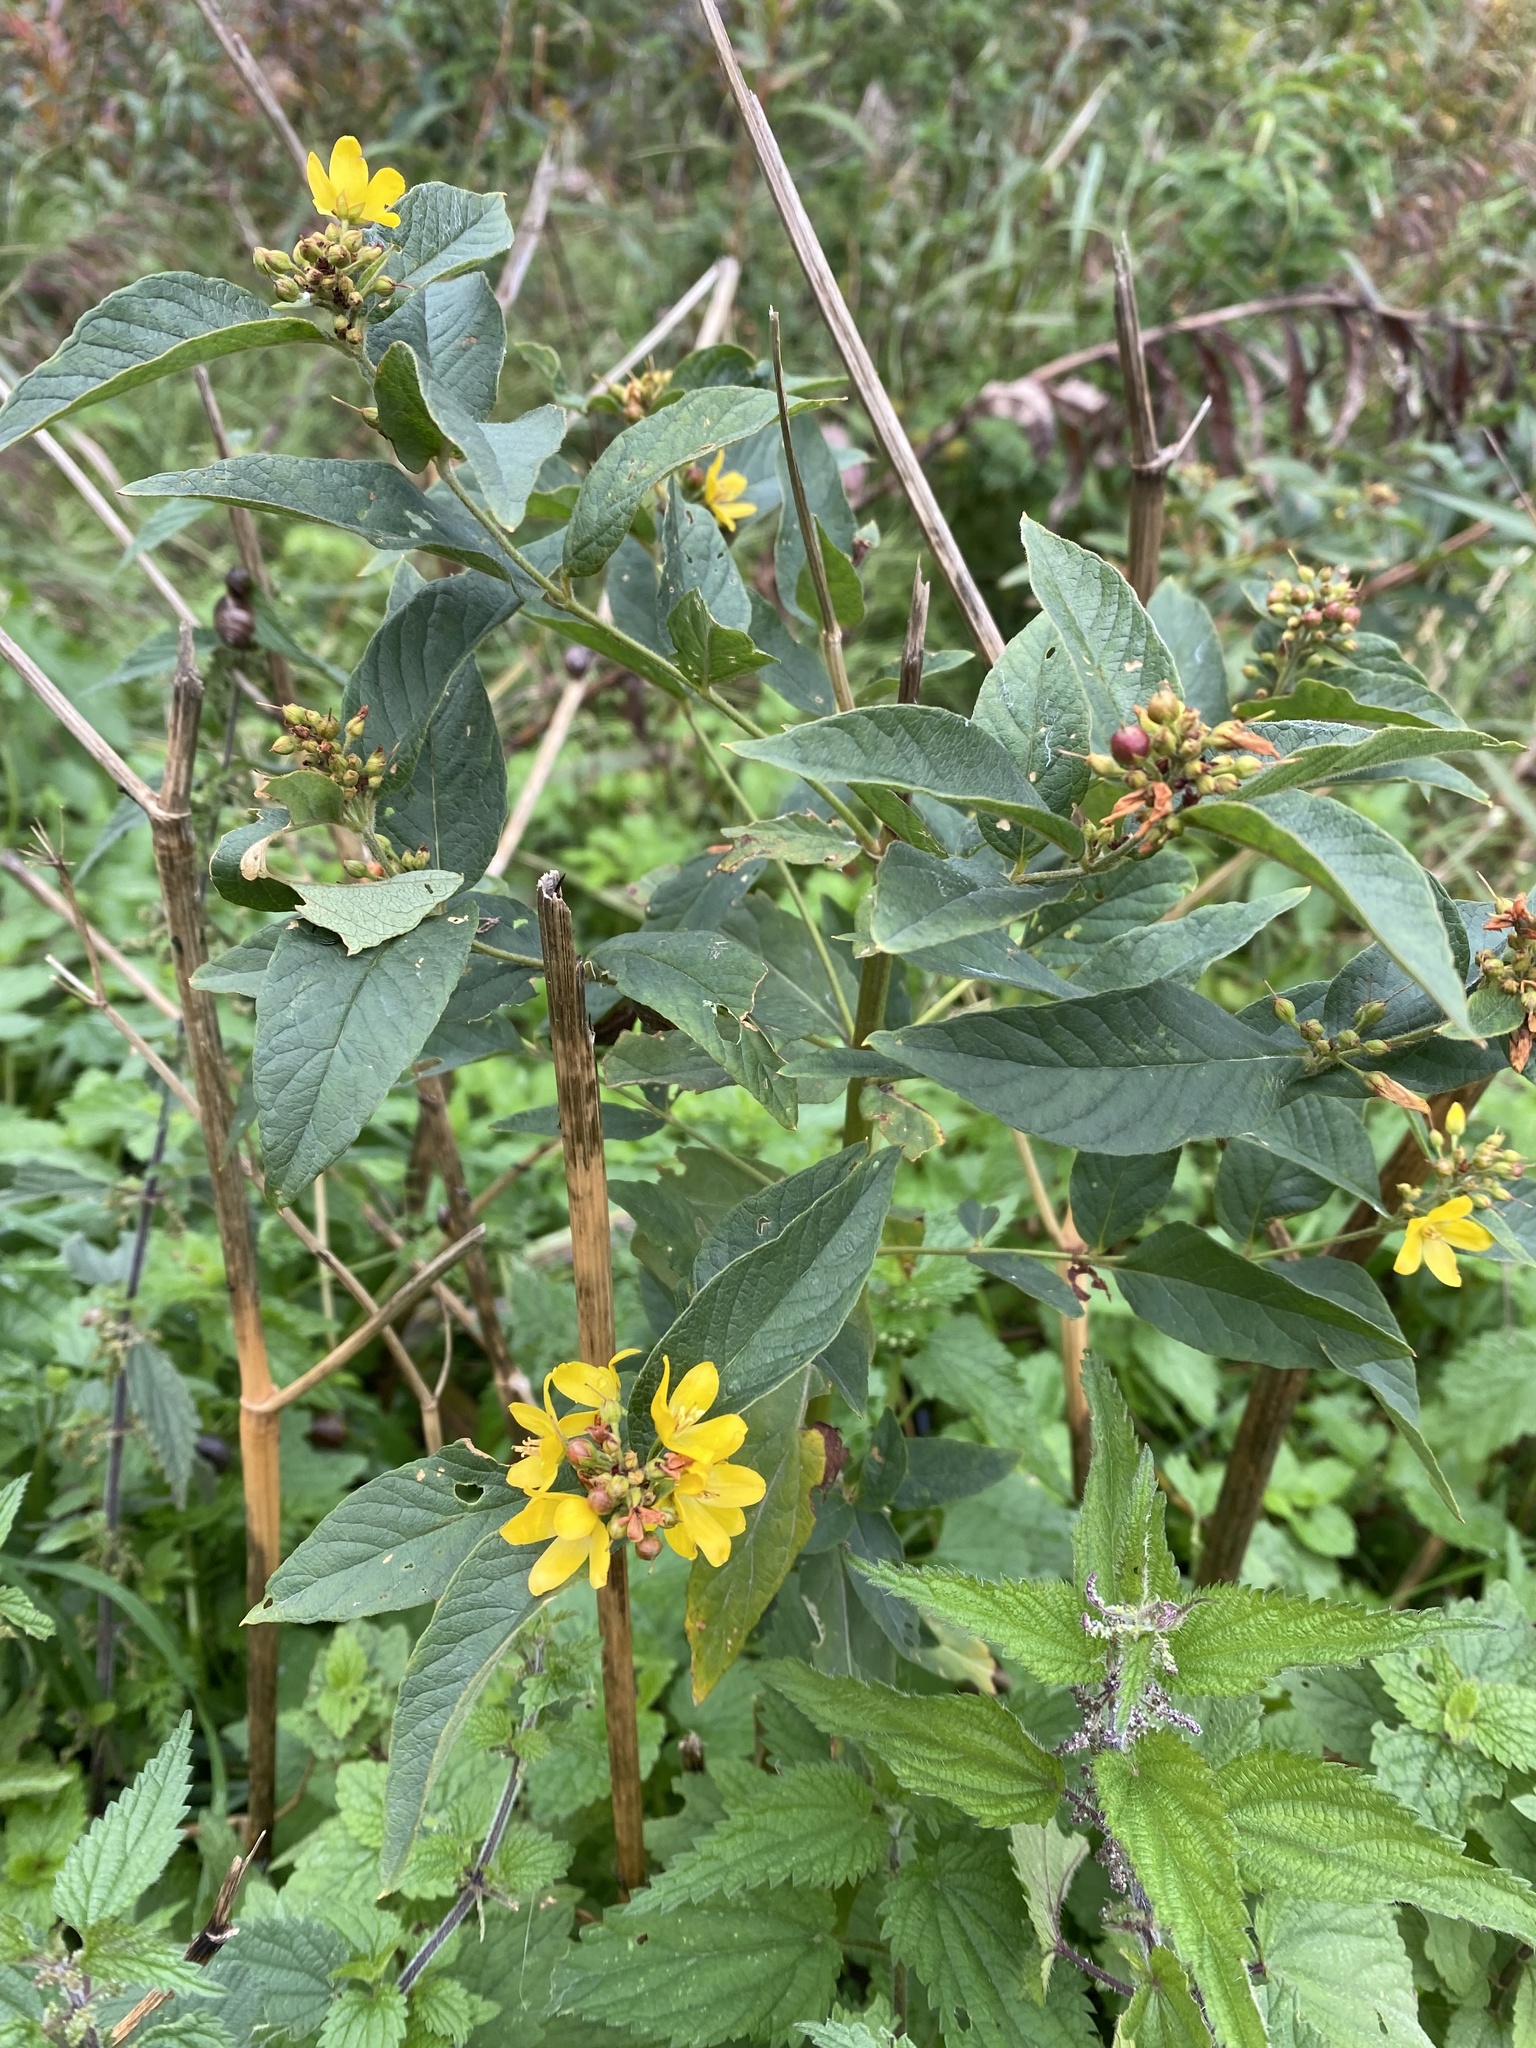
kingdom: Plantae
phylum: Tracheophyta
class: Magnoliopsida
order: Ericales
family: Primulaceae
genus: Lysimachia
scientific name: Lysimachia vulgaris
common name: Yellow loosestrife
